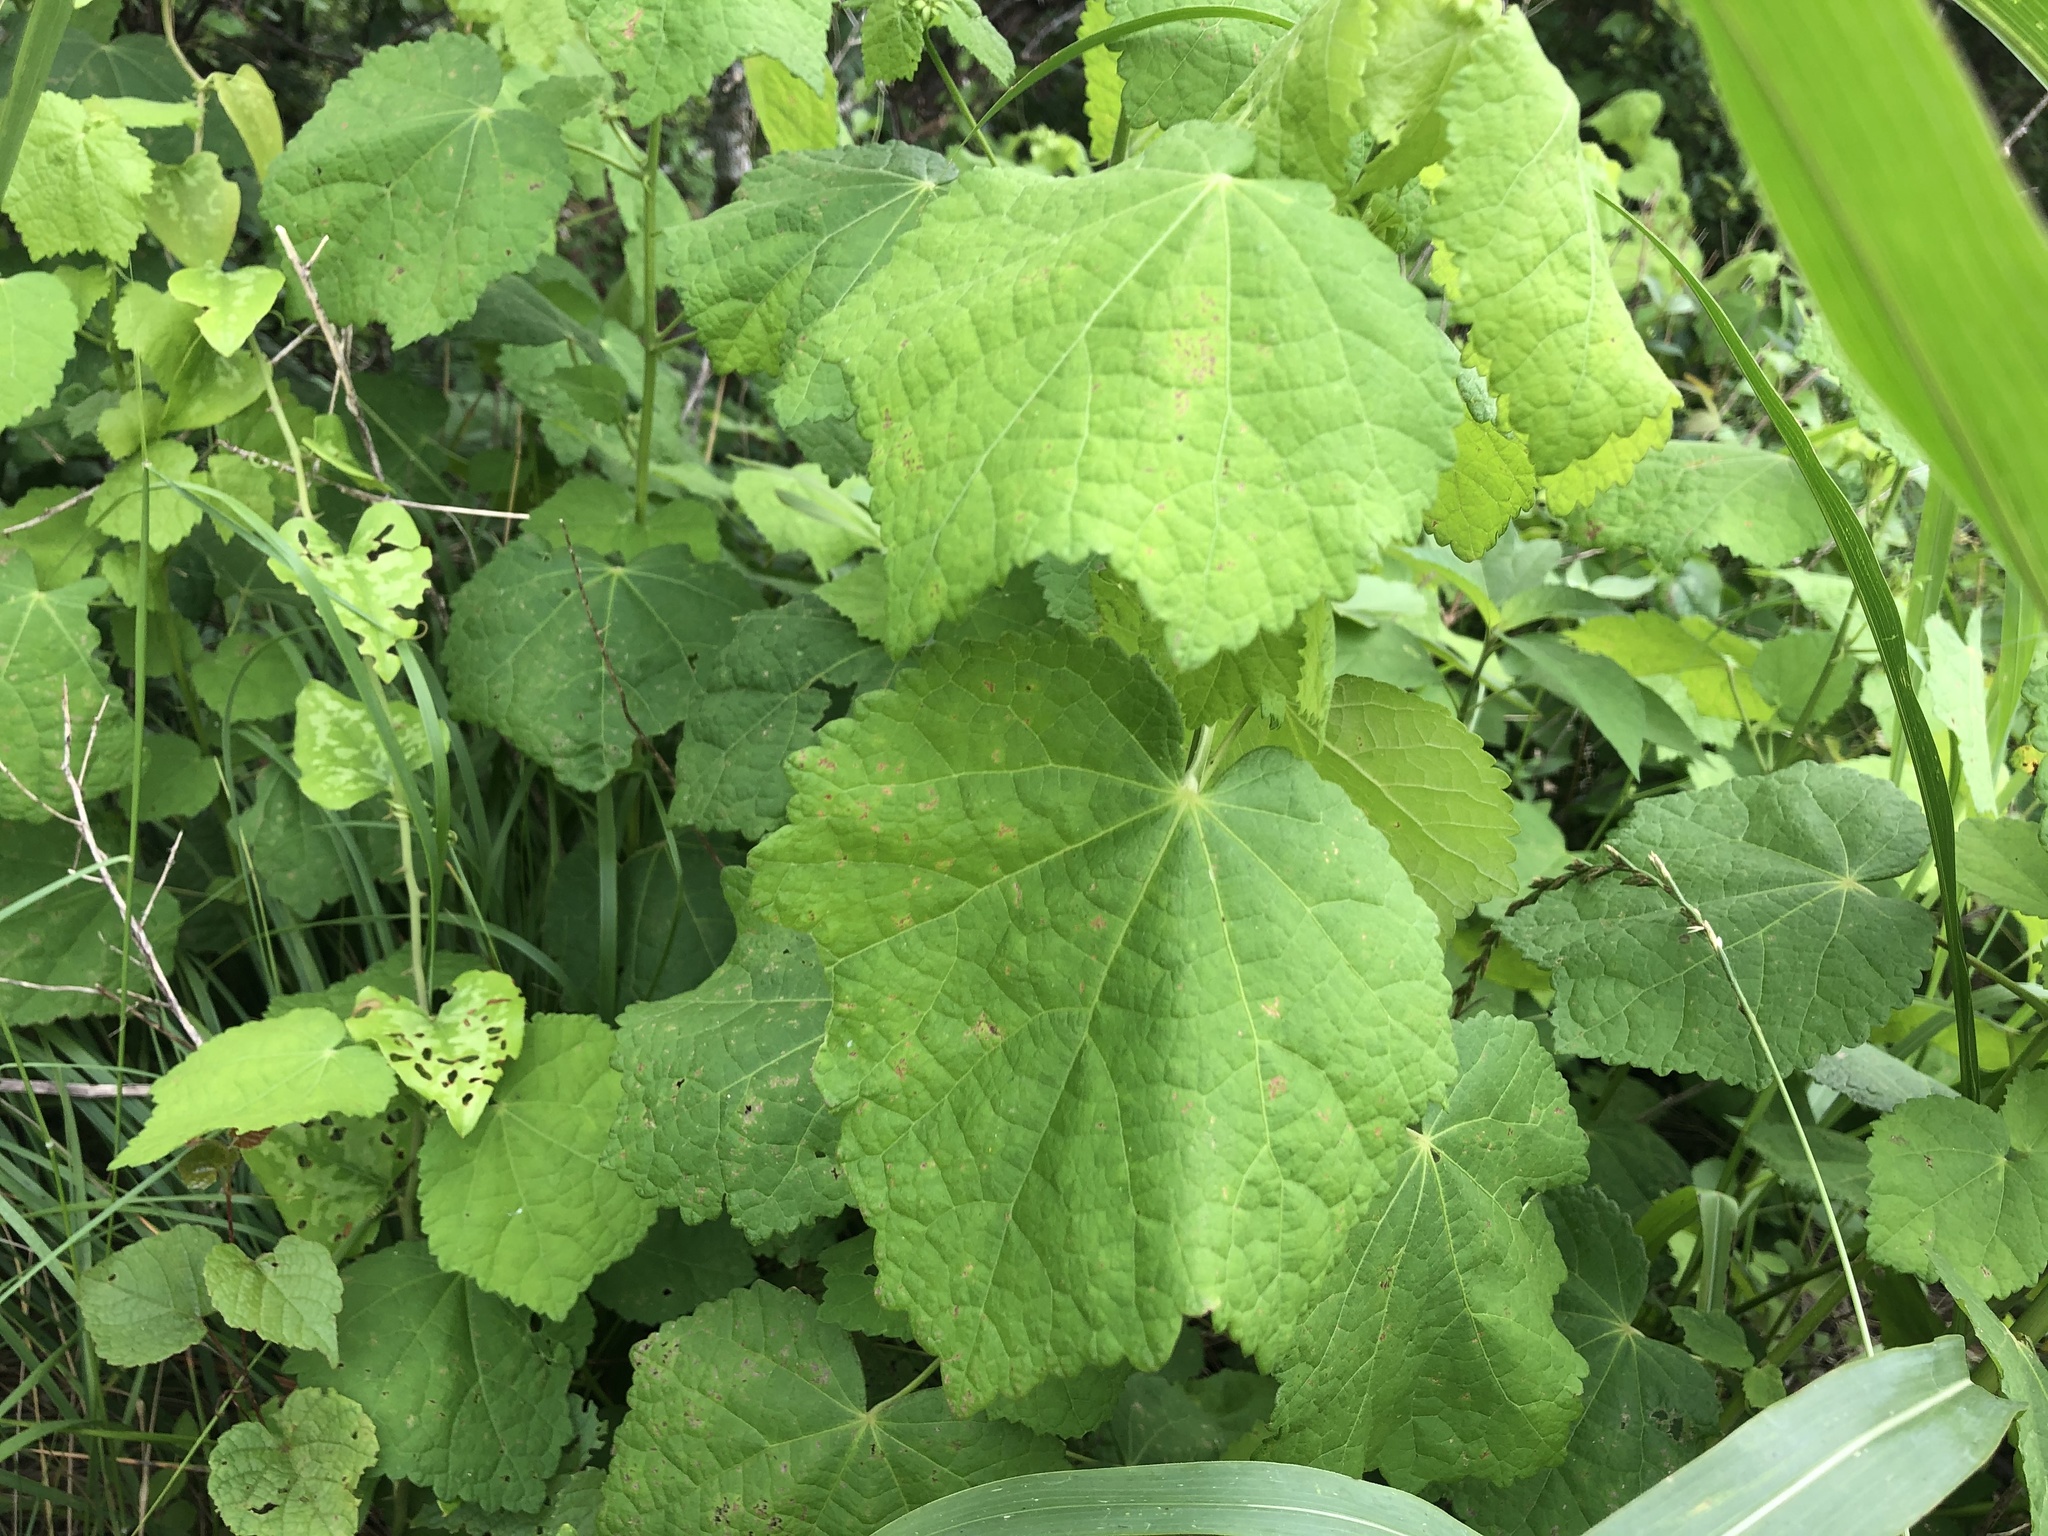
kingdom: Plantae
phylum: Tracheophyta
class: Magnoliopsida
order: Malvales
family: Malvaceae
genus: Malvaviscus
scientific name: Malvaviscus arboreus
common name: Wax mallow
